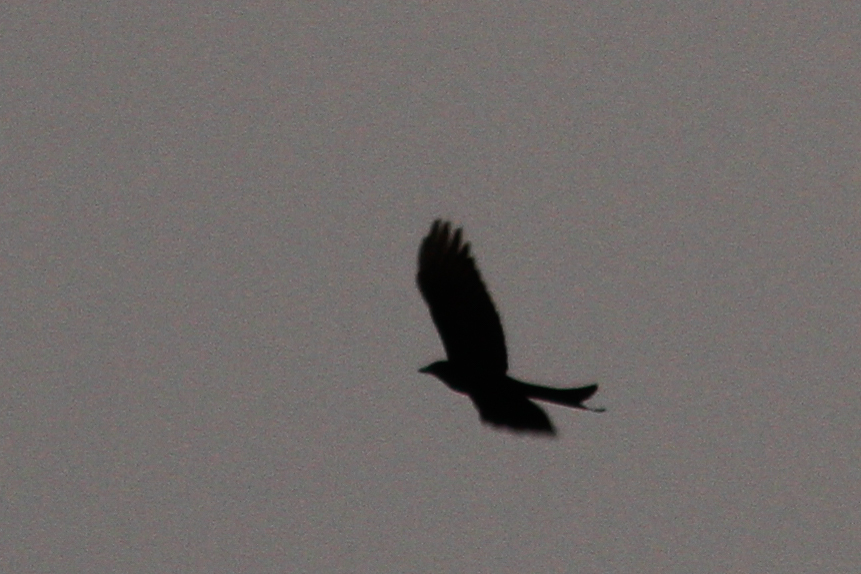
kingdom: Animalia
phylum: Chordata
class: Aves
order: Passeriformes
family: Dicruridae
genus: Dicrurus
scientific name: Dicrurus macrocercus
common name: Black drongo
